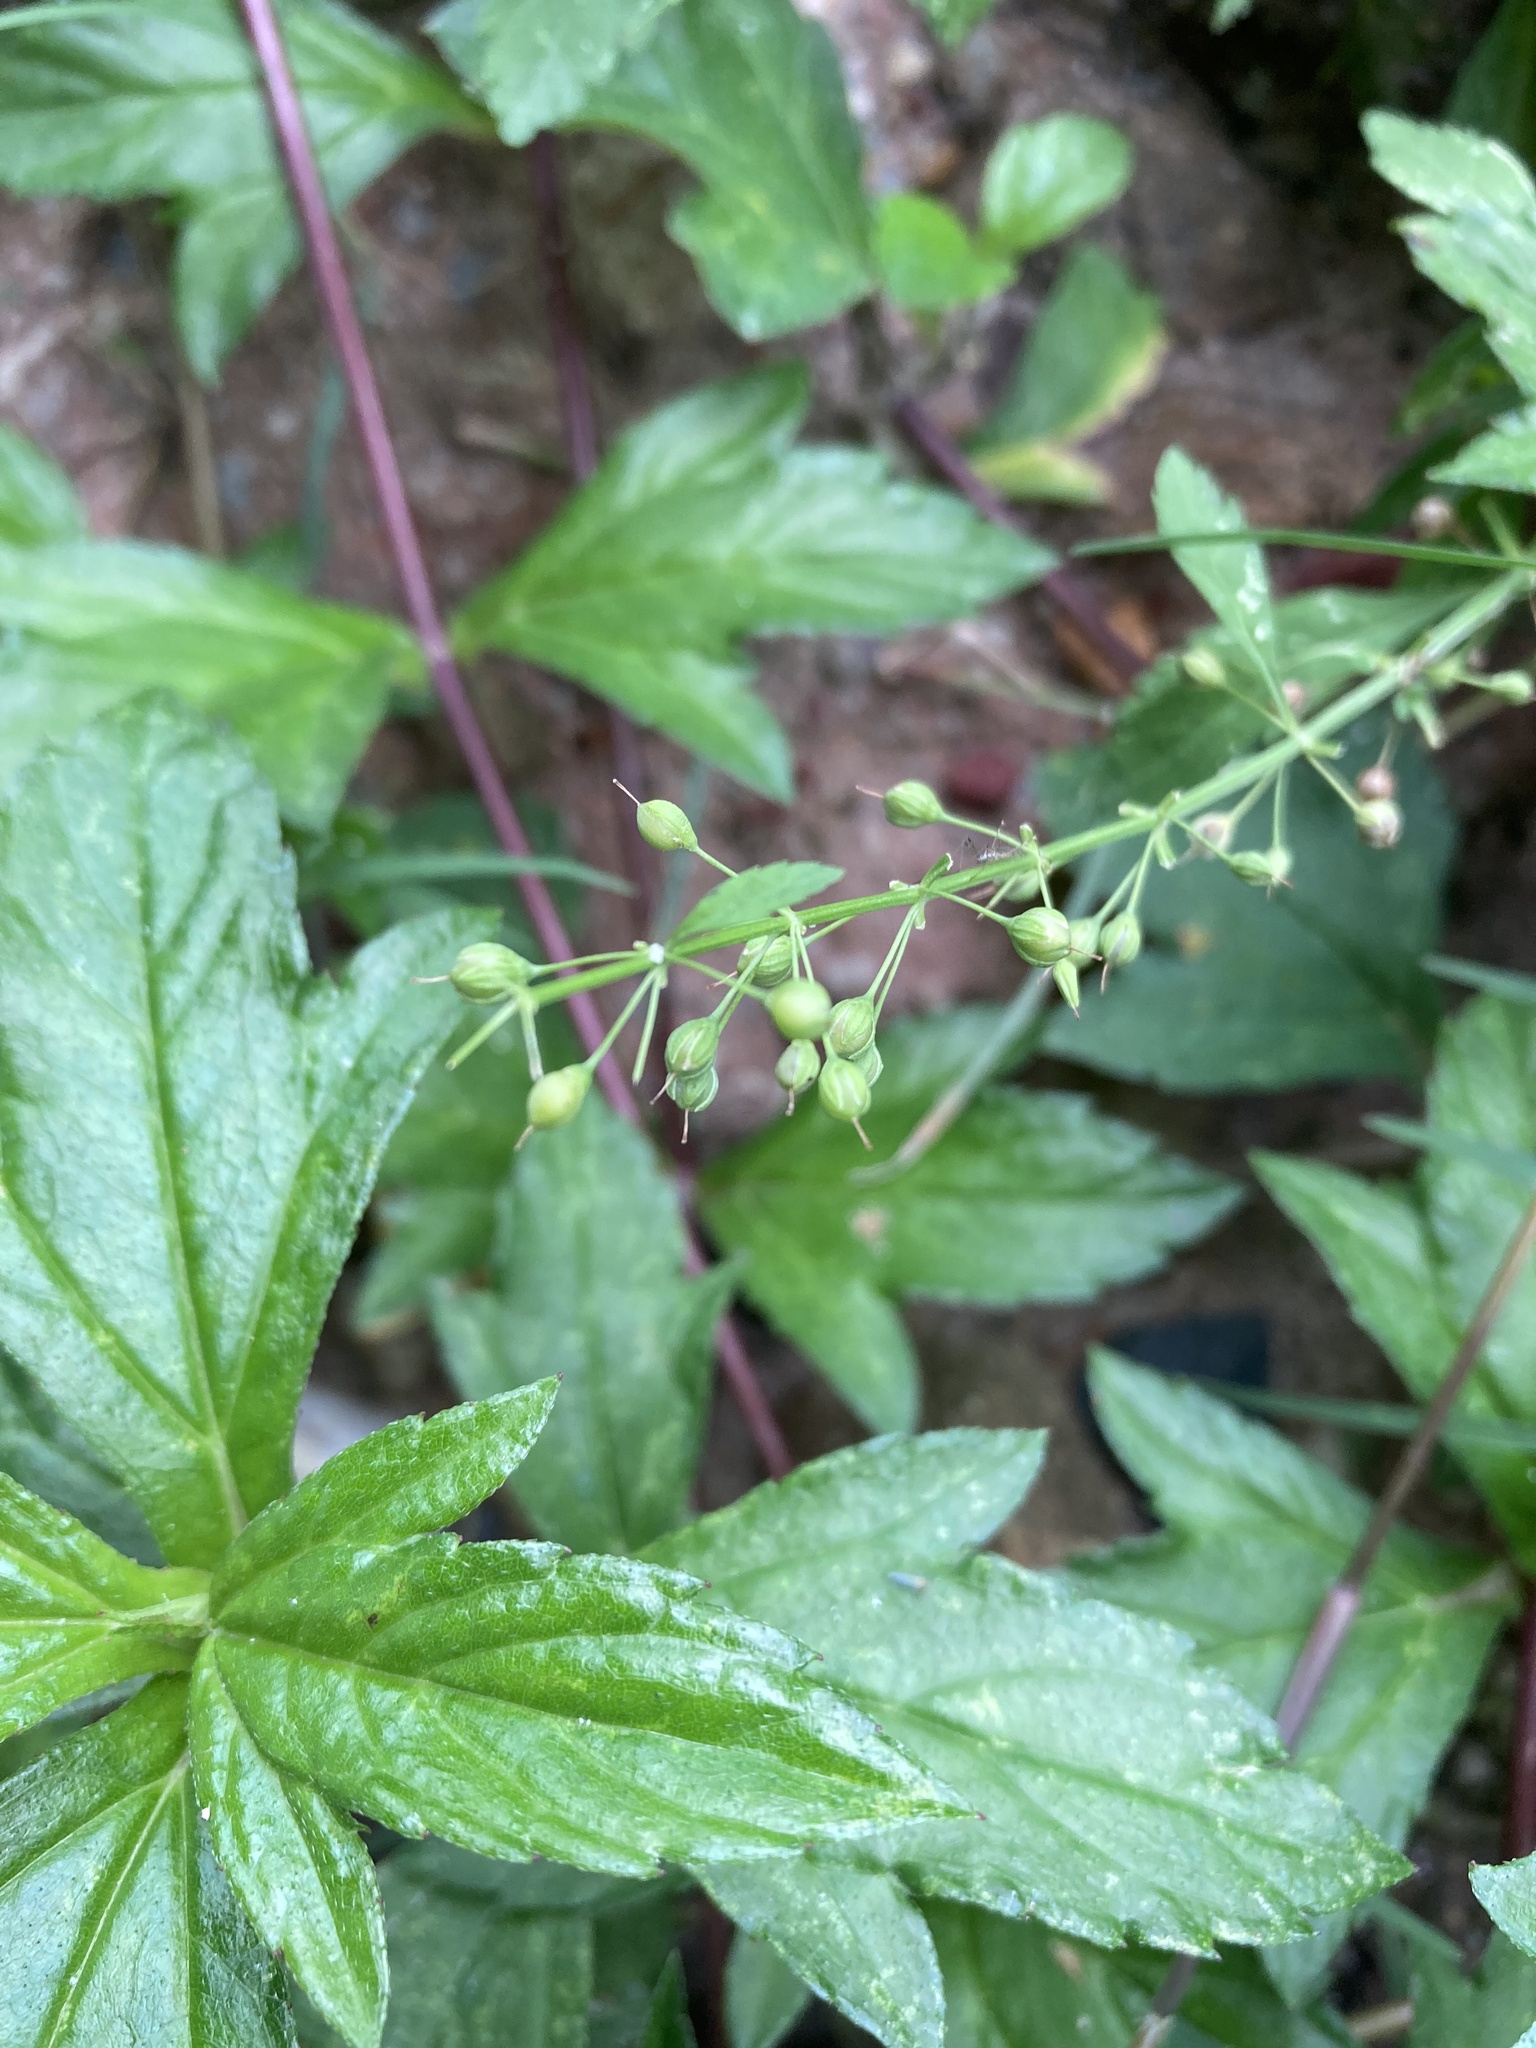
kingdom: Plantae
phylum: Tracheophyta
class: Magnoliopsida
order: Lamiales
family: Plantaginaceae
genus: Scoparia
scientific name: Scoparia dulcis
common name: Scoparia-weed
